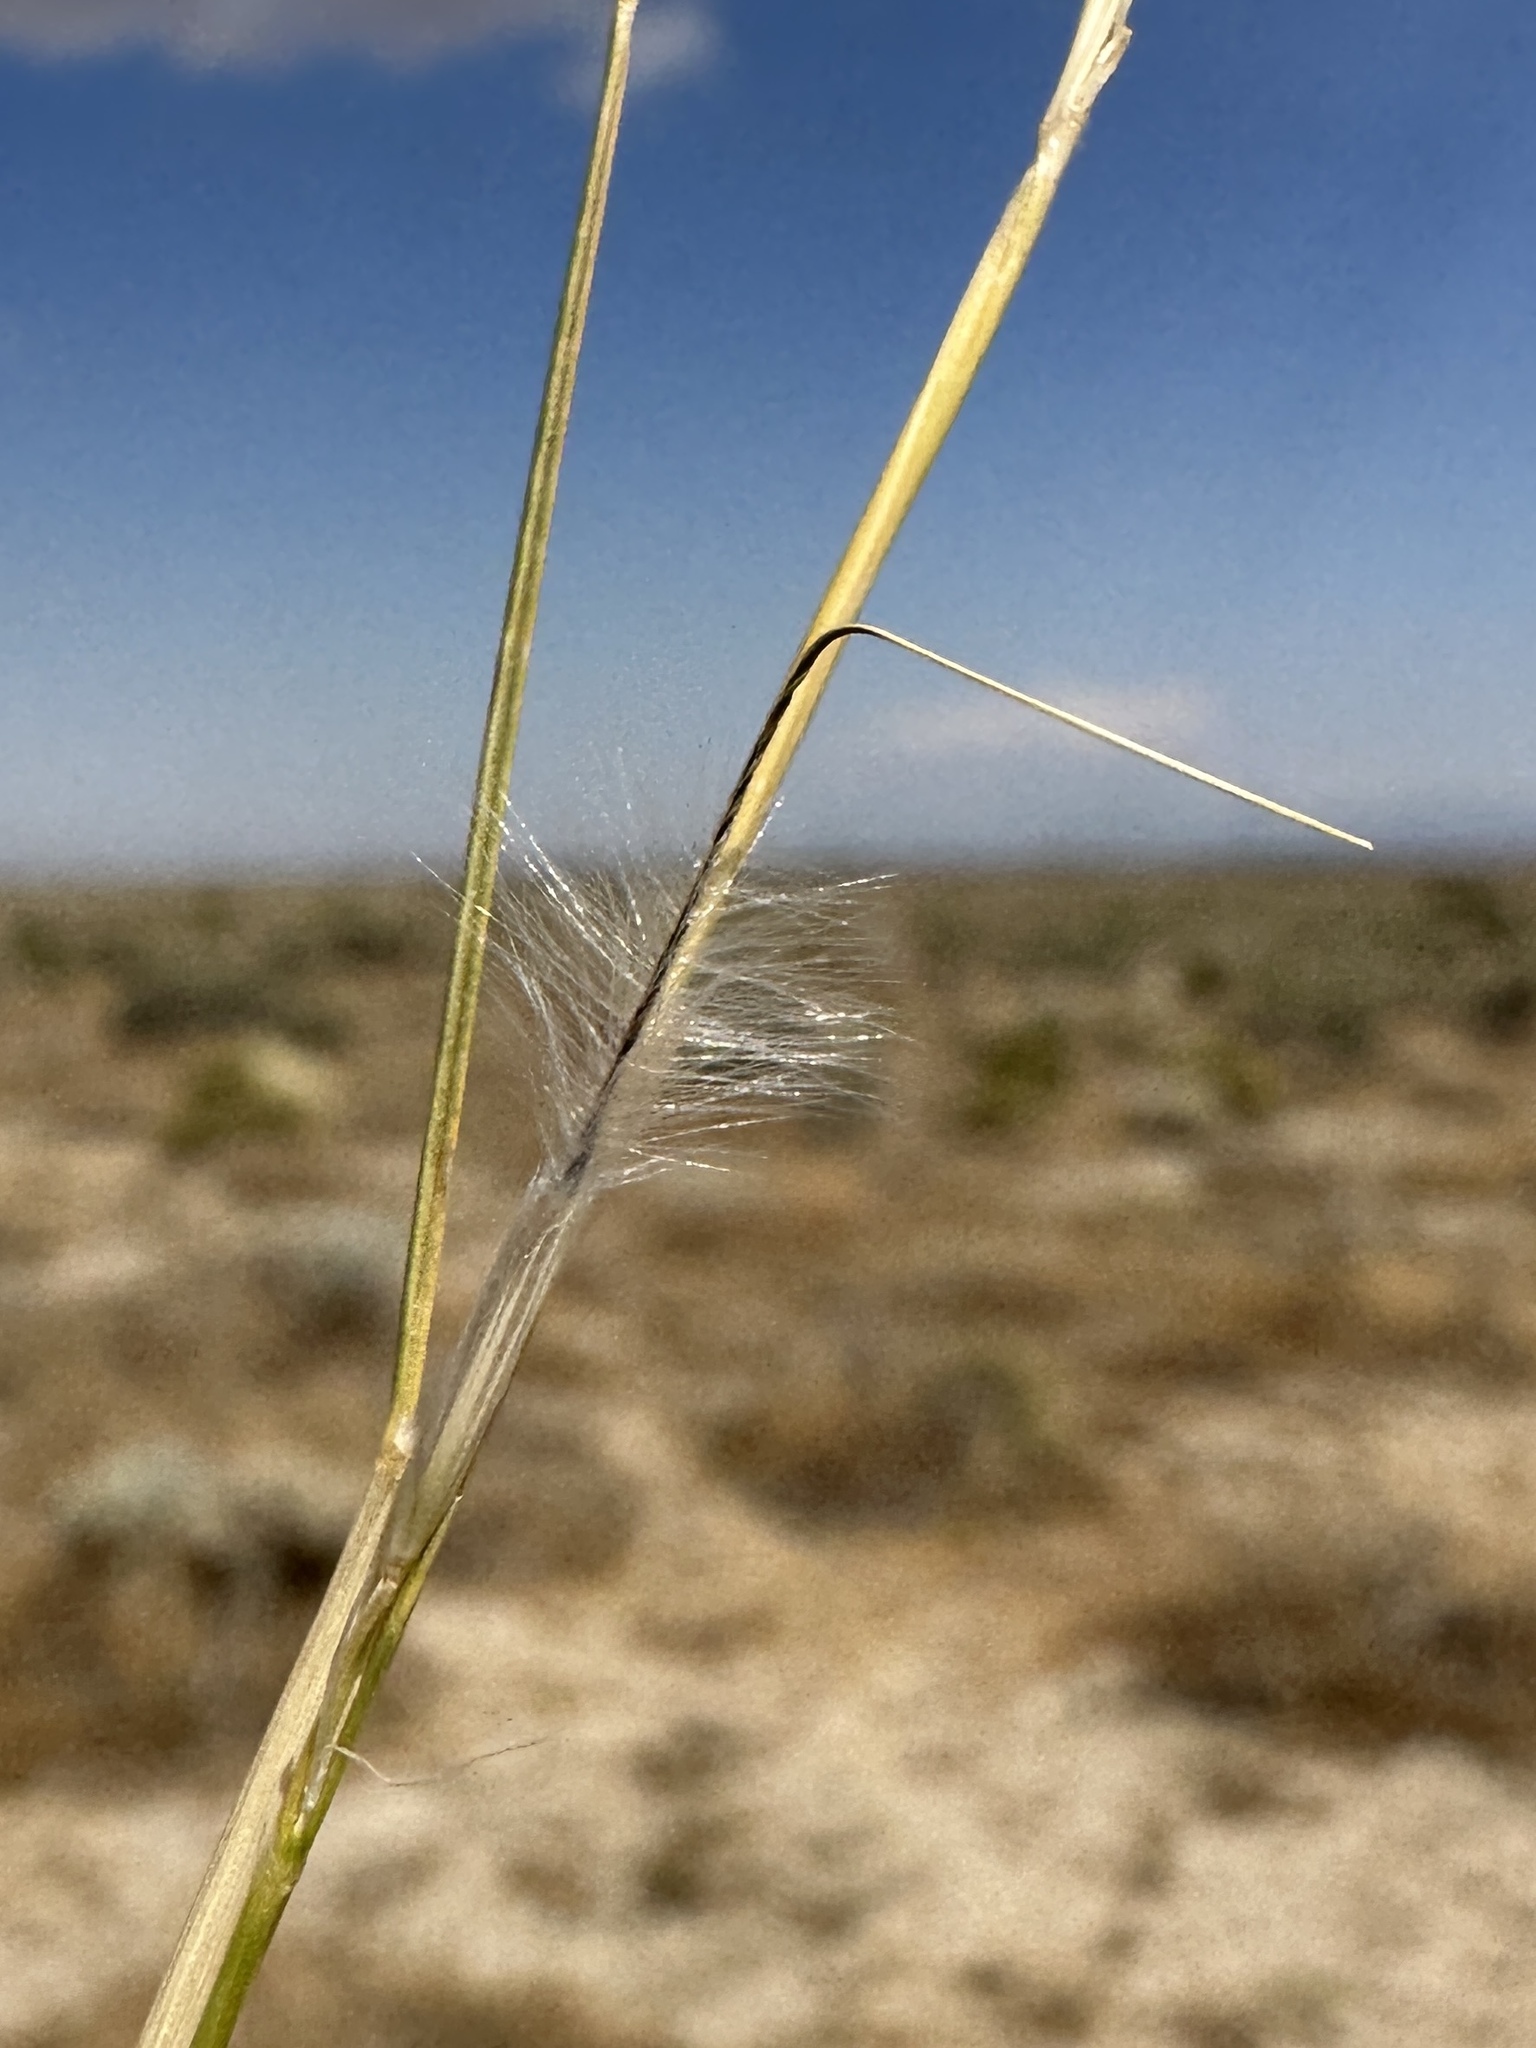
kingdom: Plantae
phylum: Tracheophyta
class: Liliopsida
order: Poales
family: Poaceae
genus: Pappostipa
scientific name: Pappostipa speciosa
